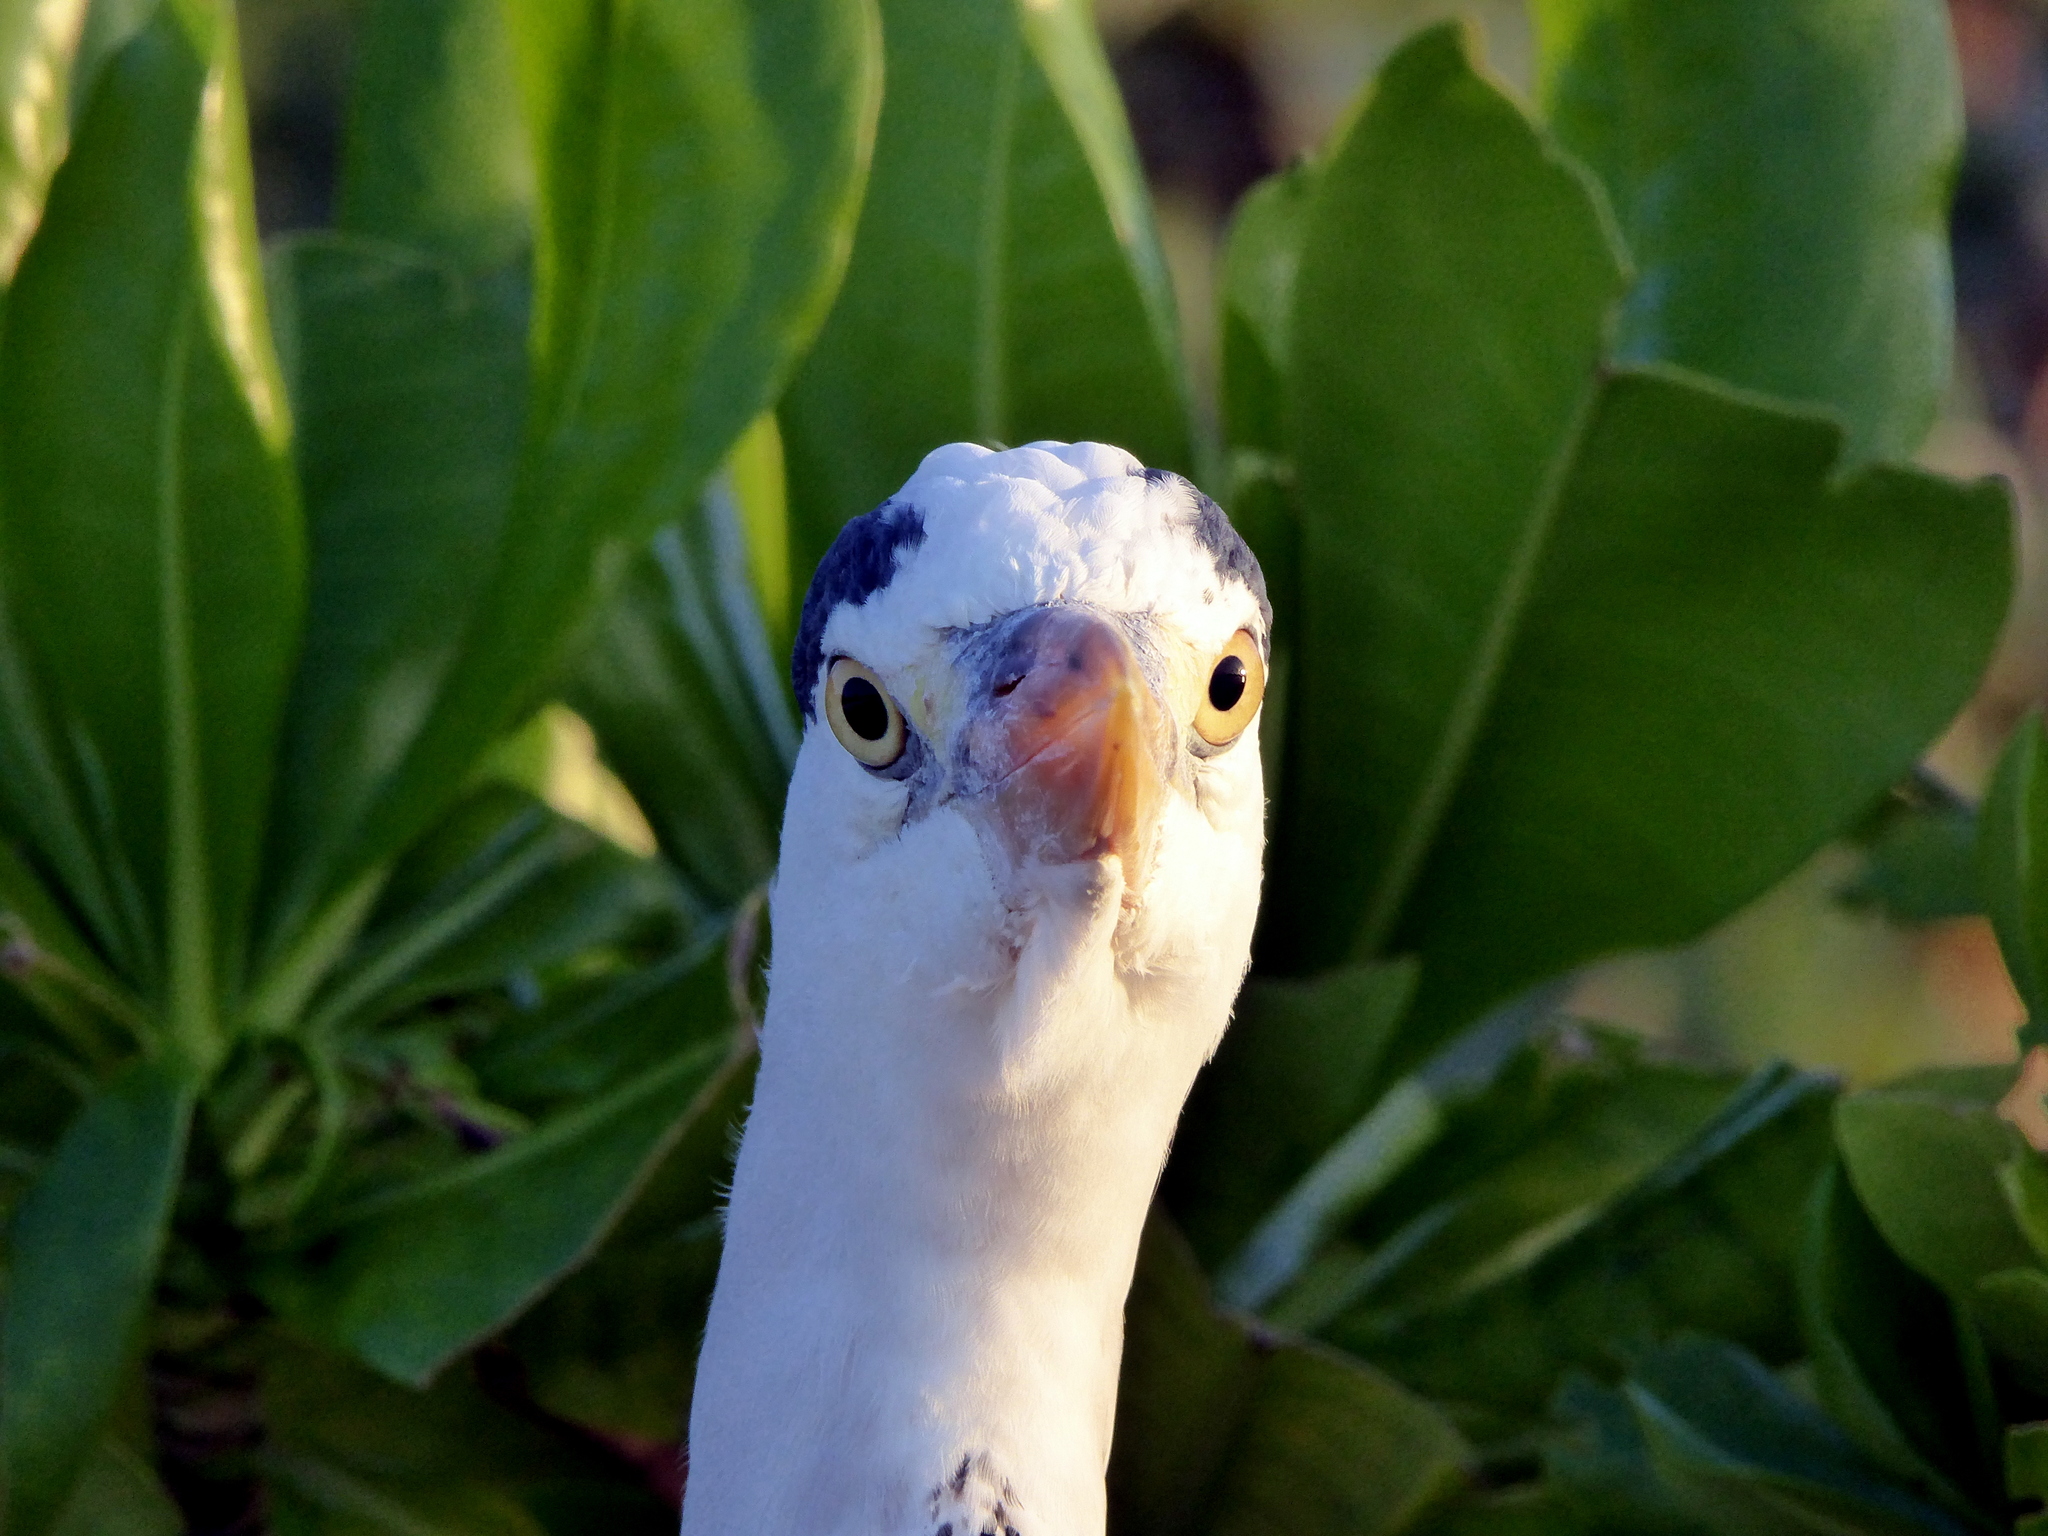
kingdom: Animalia
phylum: Chordata
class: Aves
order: Pelecaniformes
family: Ardeidae
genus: Ardea
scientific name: Ardea cinerea
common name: Grey heron
